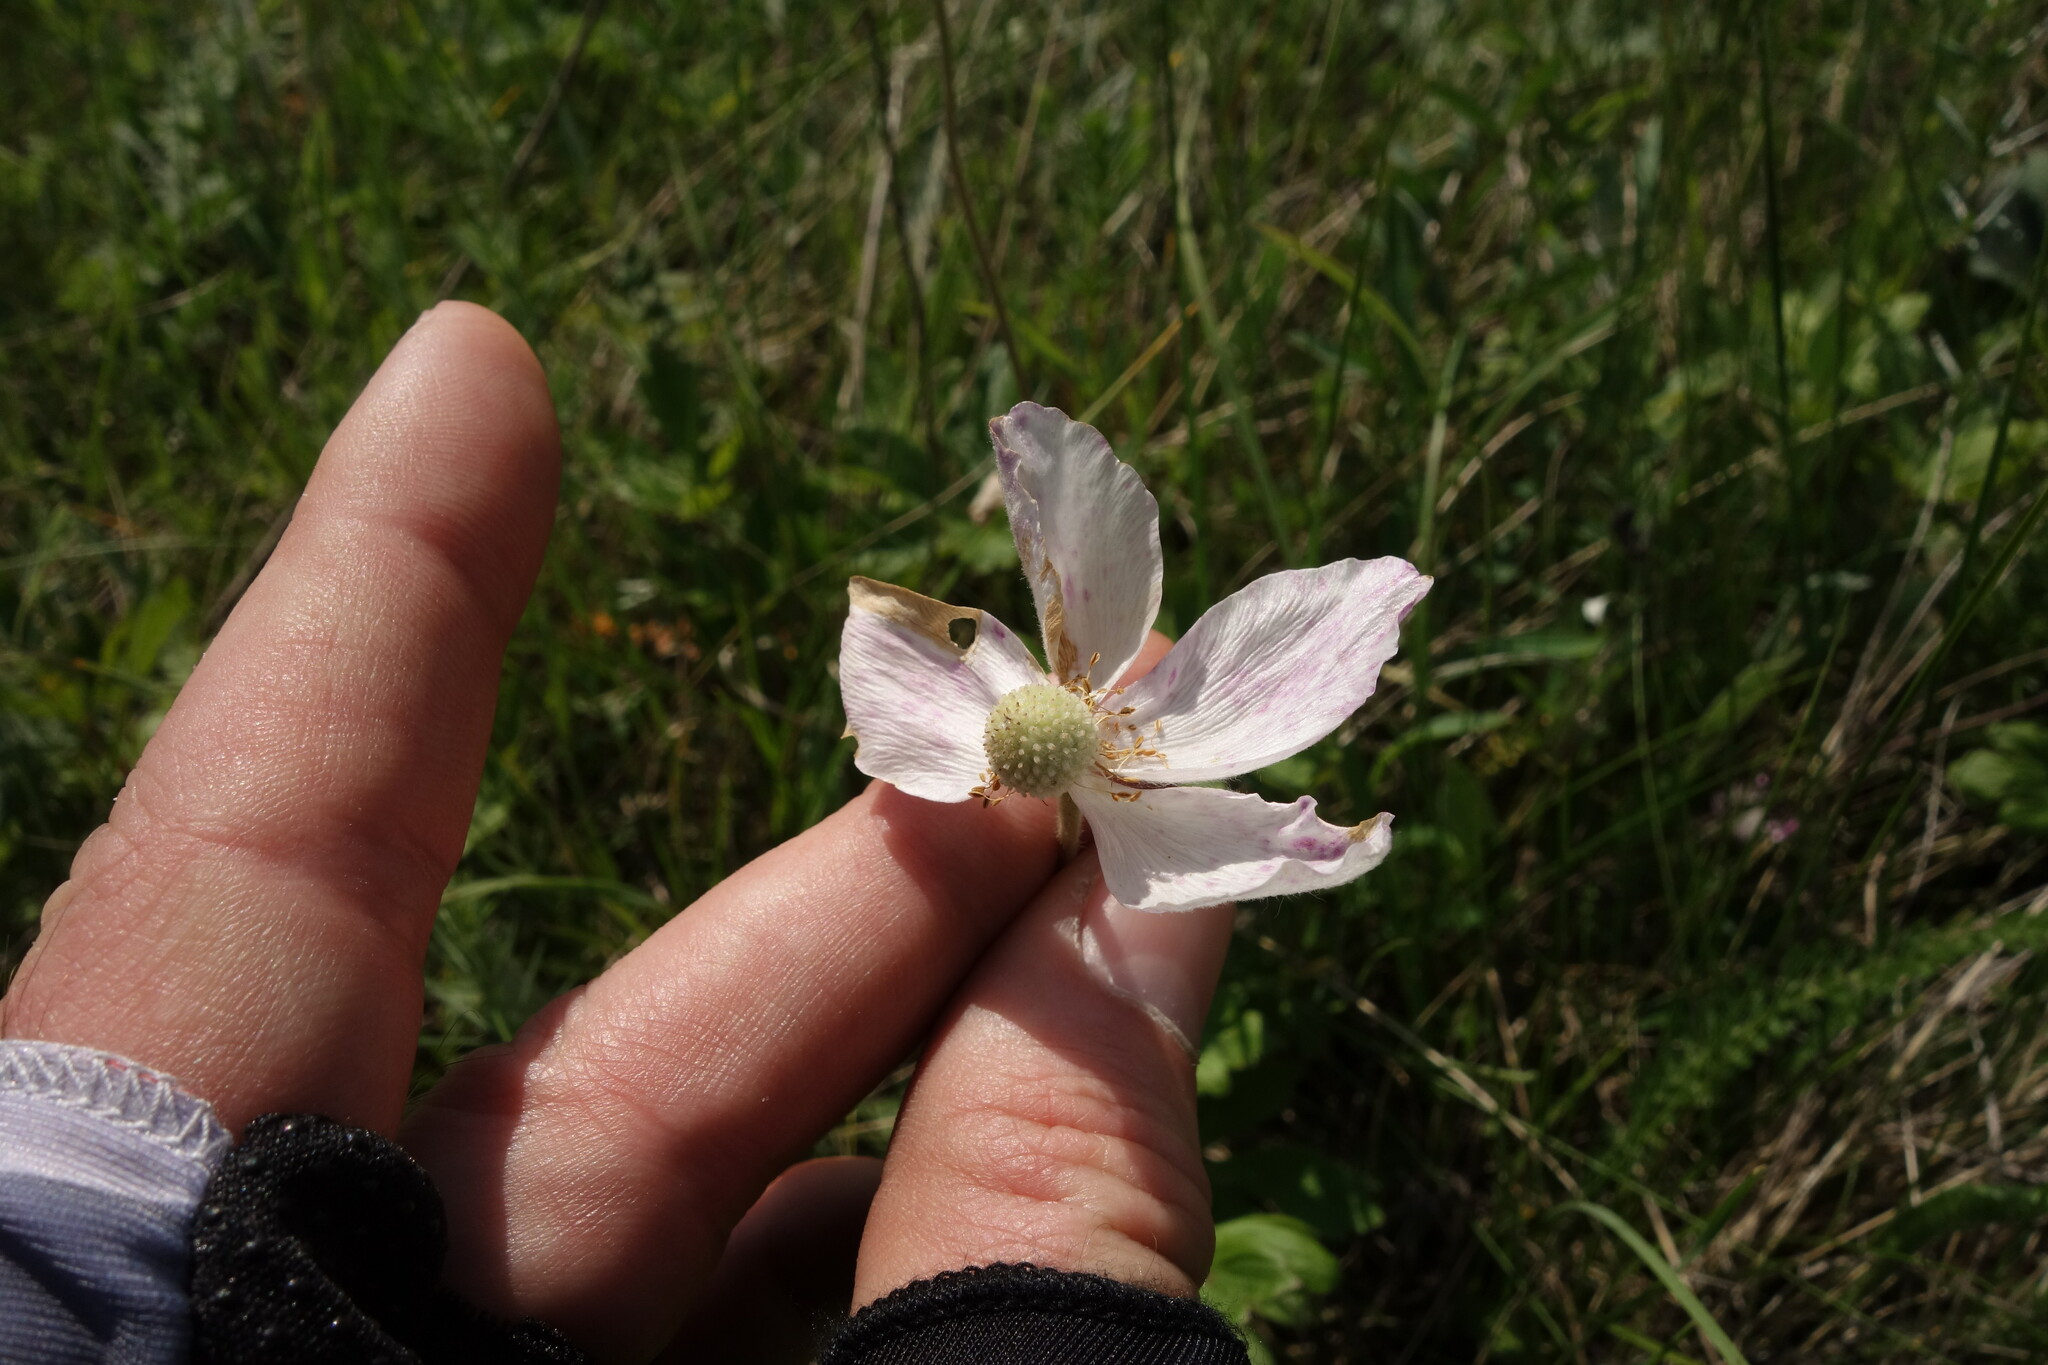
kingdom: Plantae
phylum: Tracheophyta
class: Magnoliopsida
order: Ranunculales
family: Ranunculaceae
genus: Anemone
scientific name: Anemone sylvestris
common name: Snowdrop anemone
